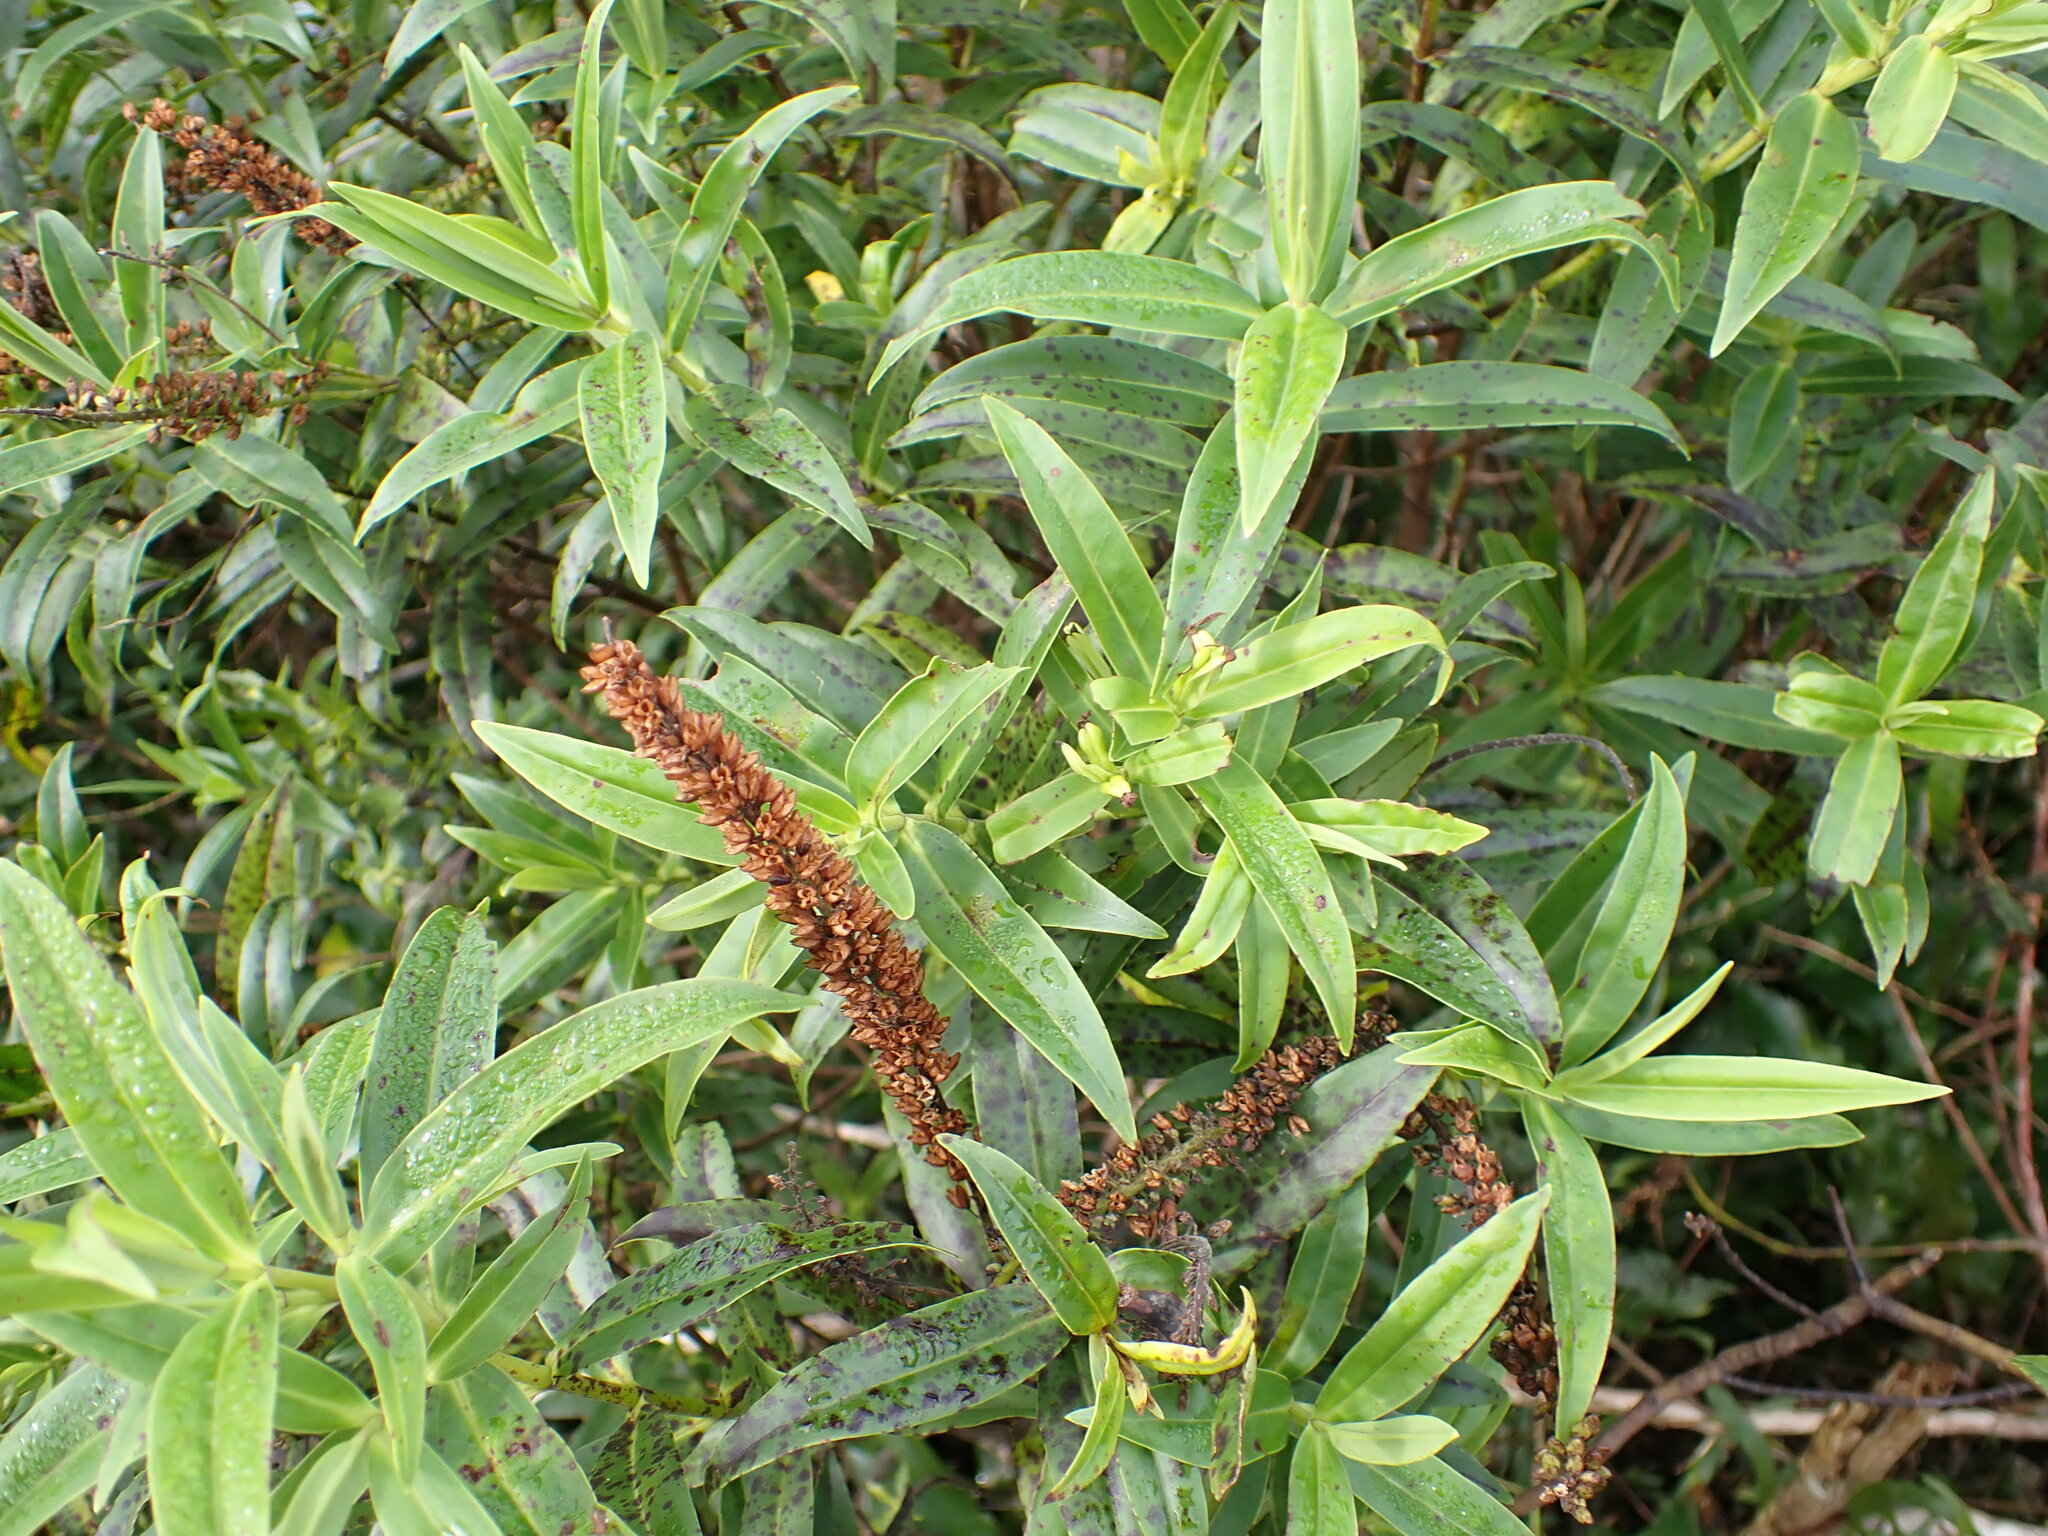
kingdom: Plantae
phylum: Tracheophyta
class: Magnoliopsida
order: Lamiales
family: Plantaginaceae
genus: Veronica
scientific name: Veronica stricta
